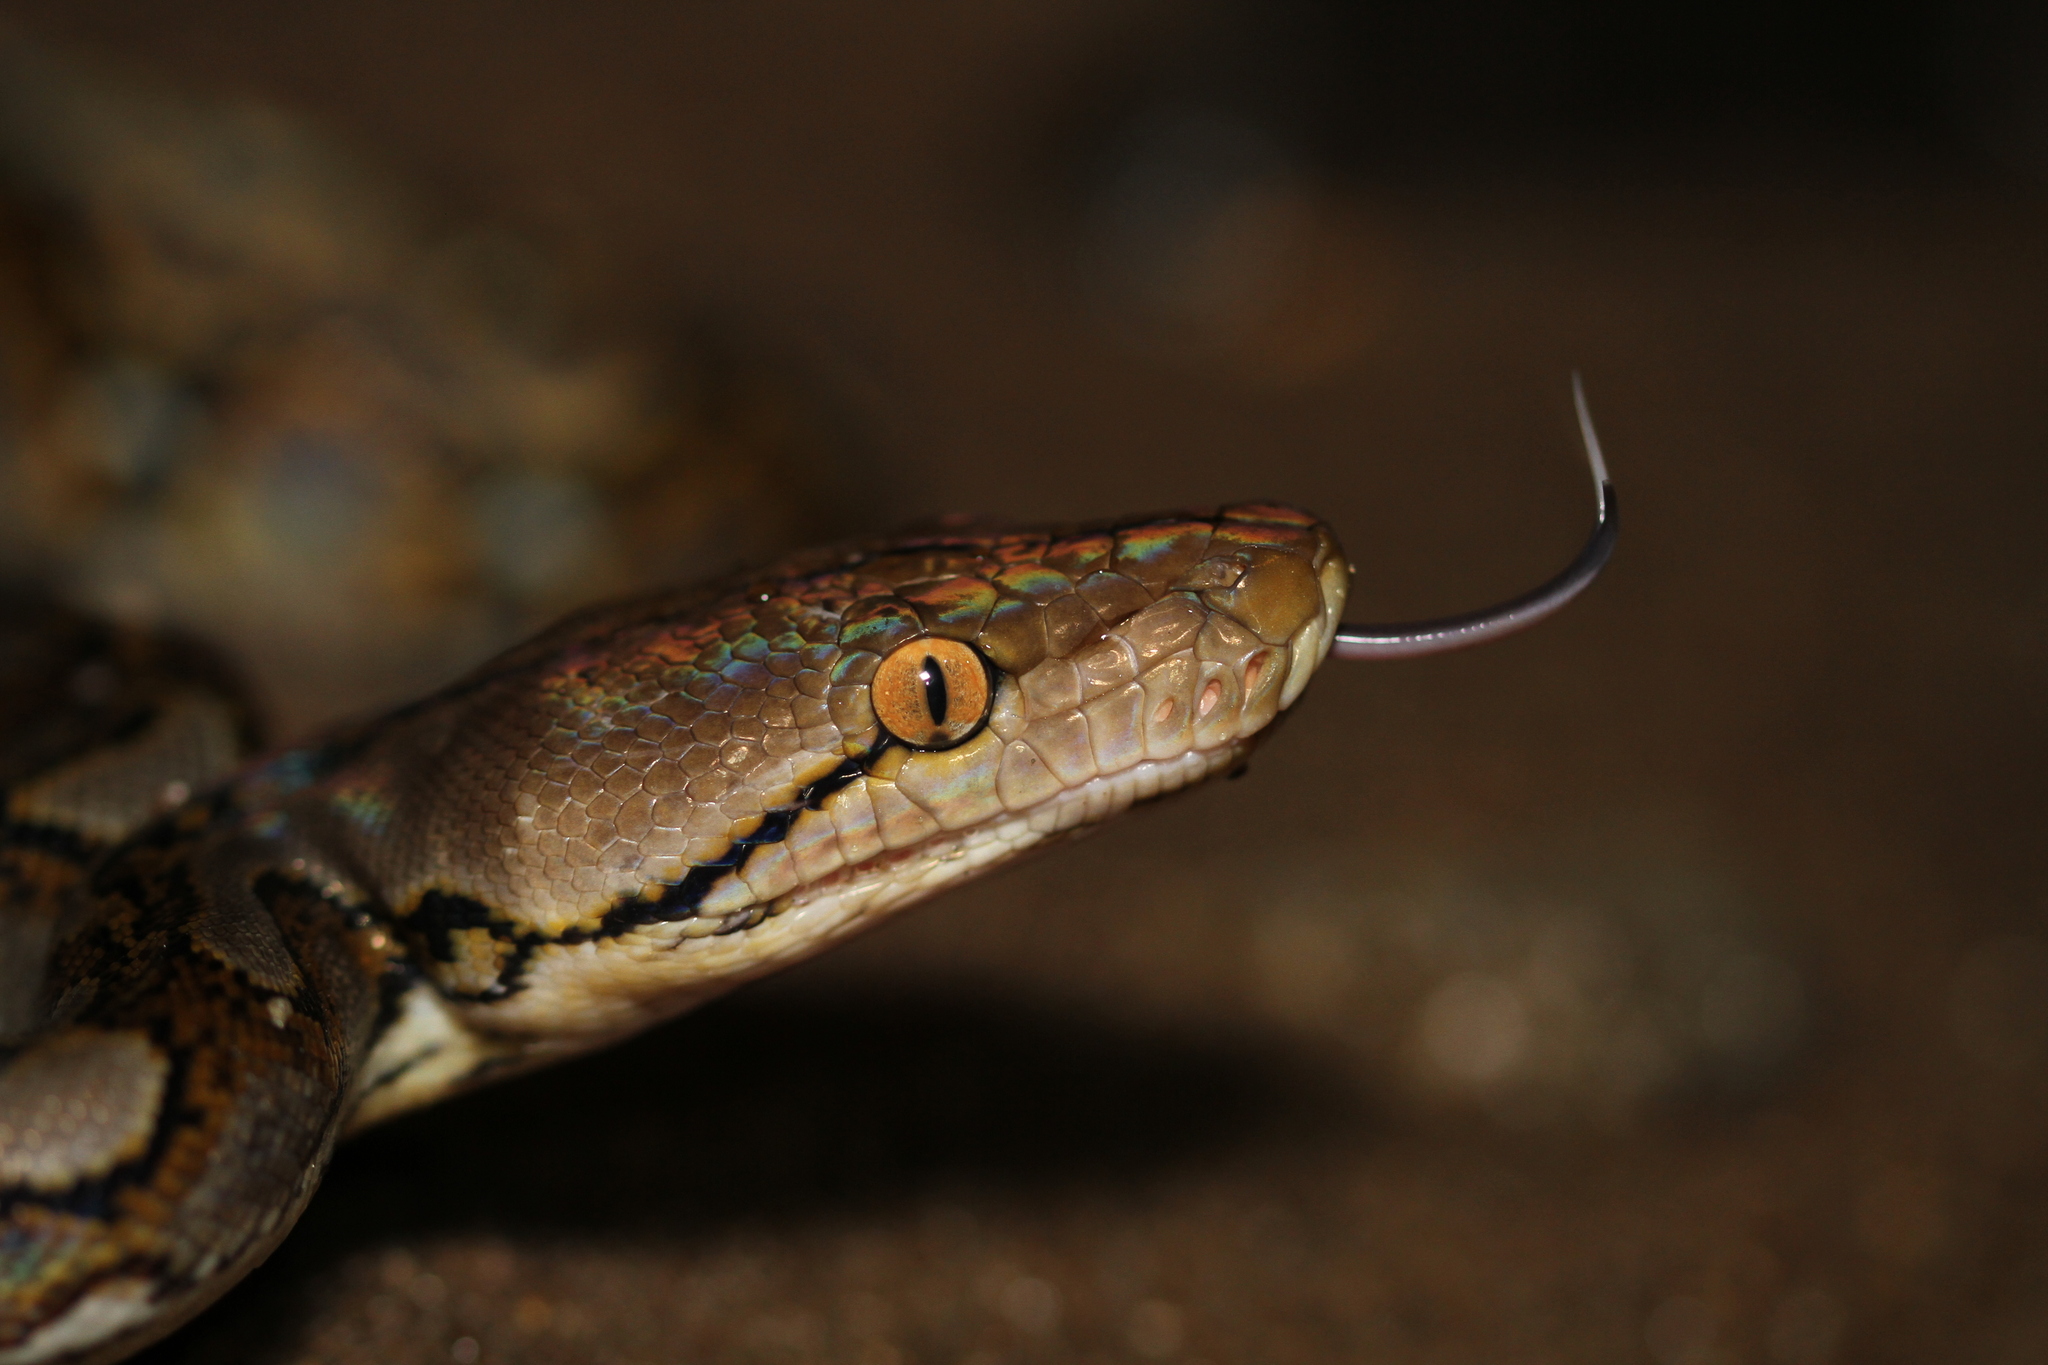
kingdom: Animalia
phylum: Chordata
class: Squamata
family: Pythonidae
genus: Malayopython
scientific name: Malayopython reticulatus
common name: Reticulated python
